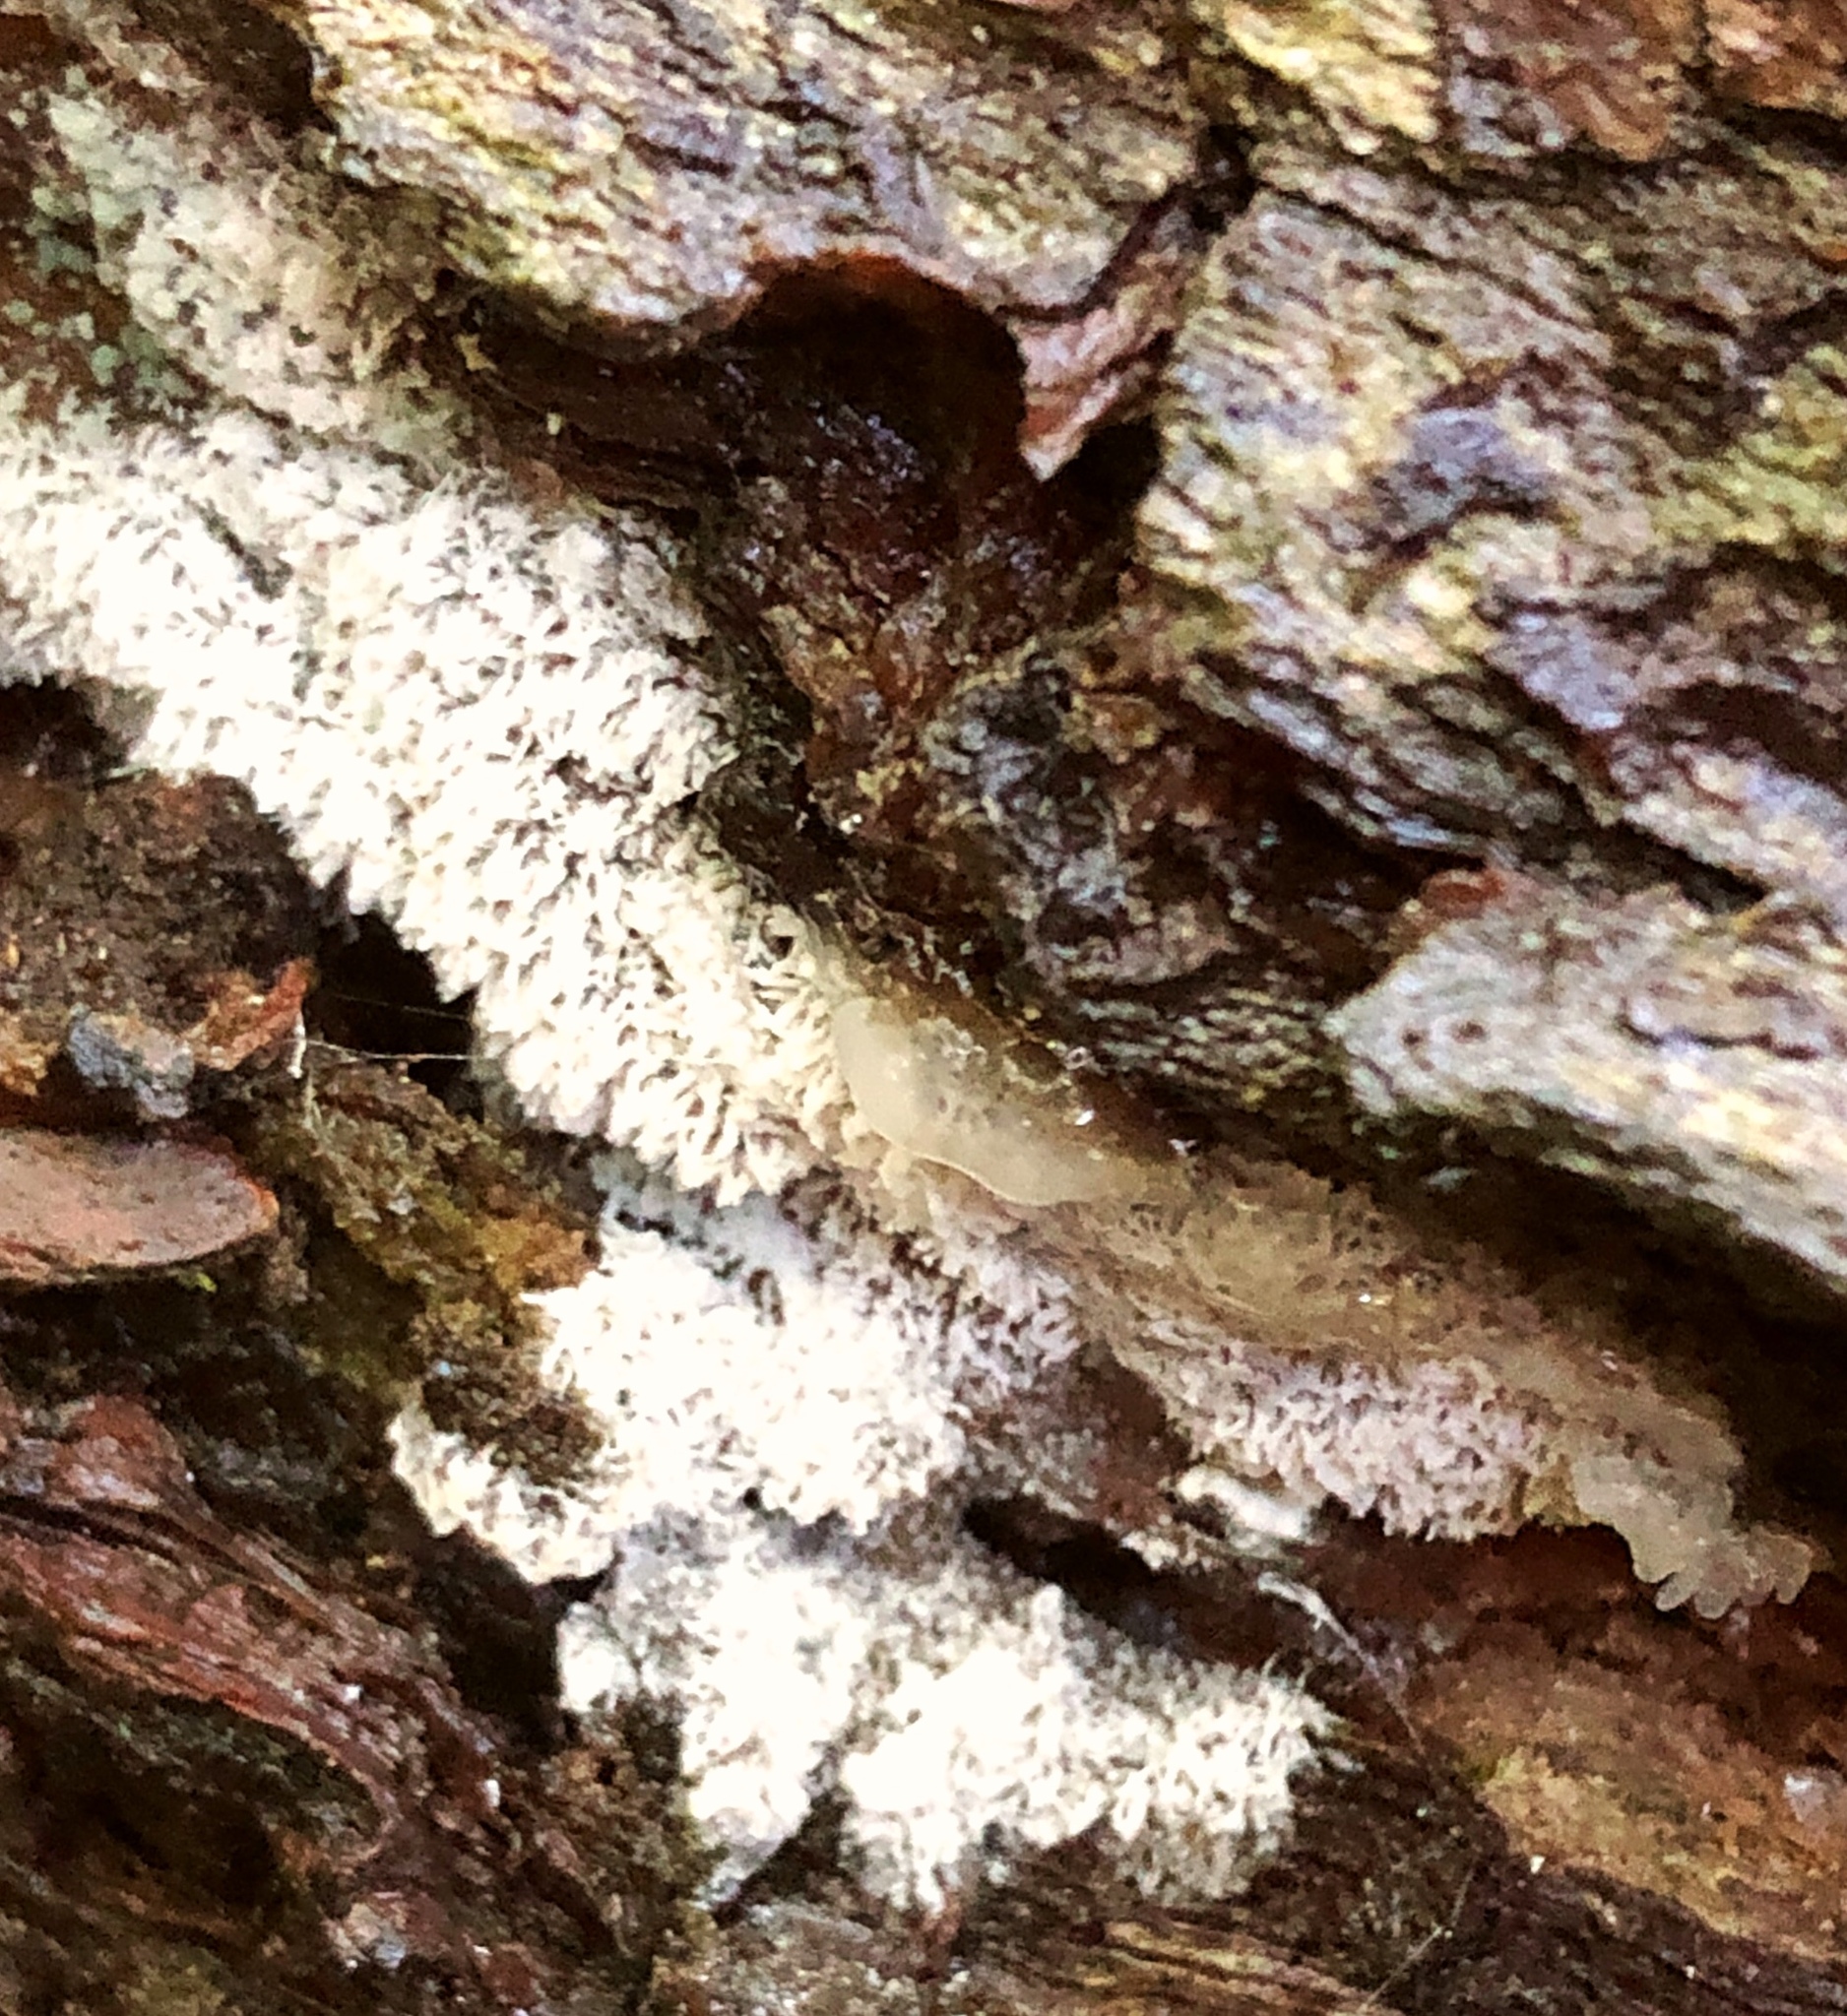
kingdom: Protozoa
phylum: Mycetozoa
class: Protosteliomycetes
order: Ceratiomyxales
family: Ceratiomyxaceae
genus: Ceratiomyxa
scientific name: Ceratiomyxa fruticulosa
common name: Honeycomb coral slime mold
